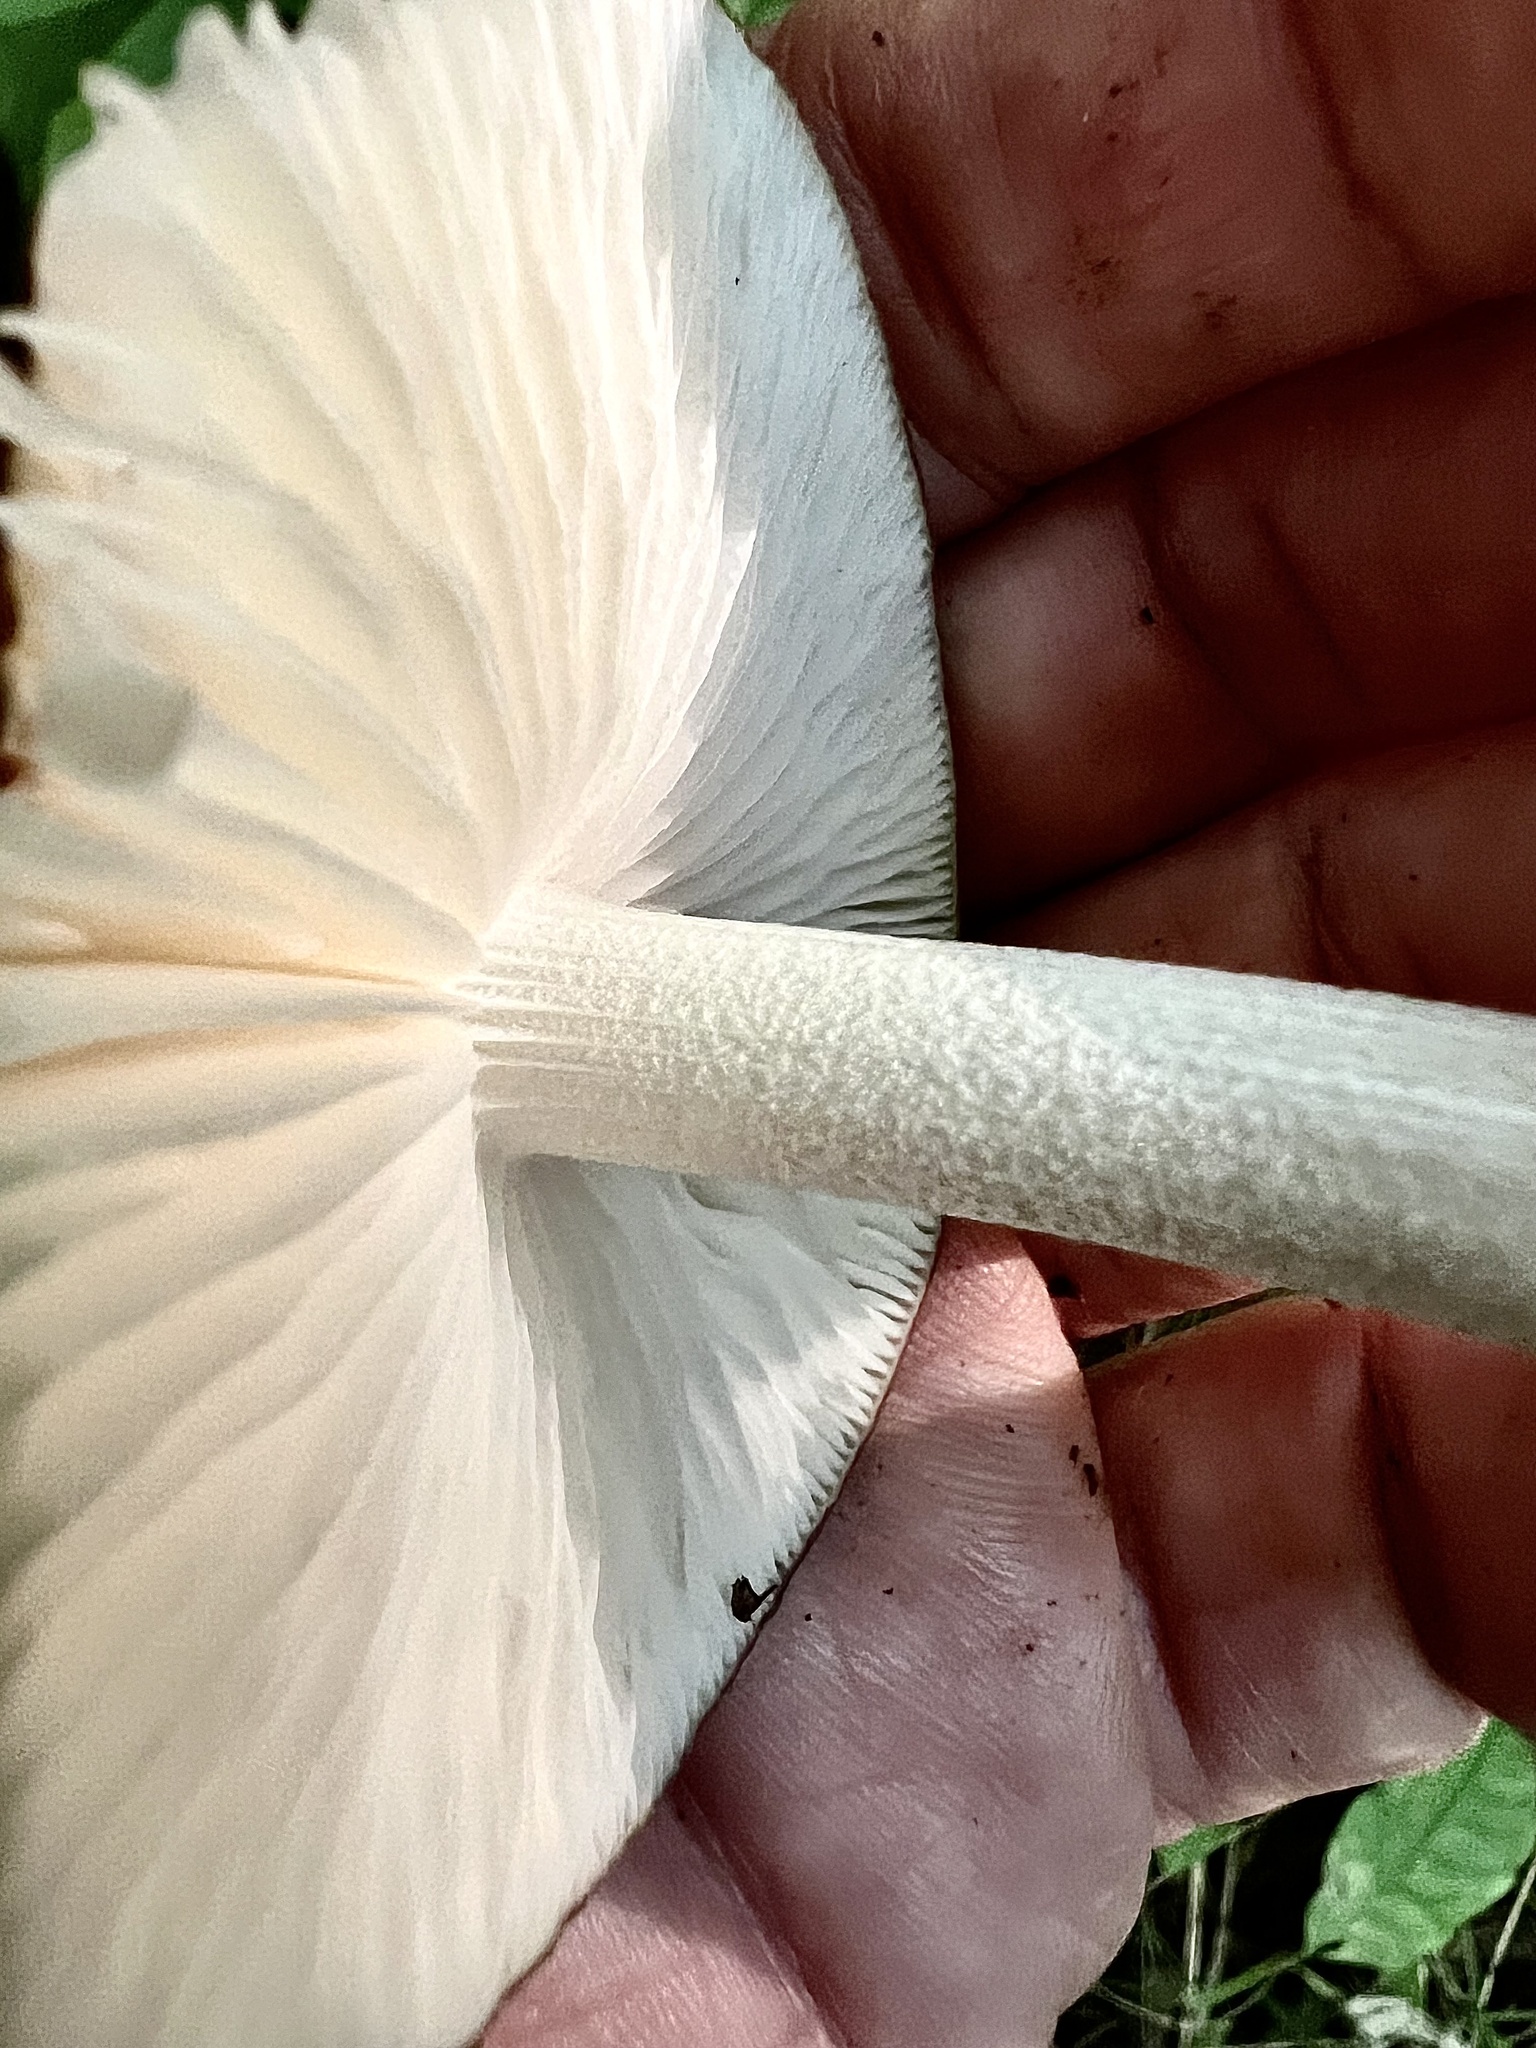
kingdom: Fungi
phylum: Basidiomycota
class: Agaricomycetes
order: Agaricales
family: Physalacriaceae
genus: Hymenopellis
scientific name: Hymenopellis furfuracea
